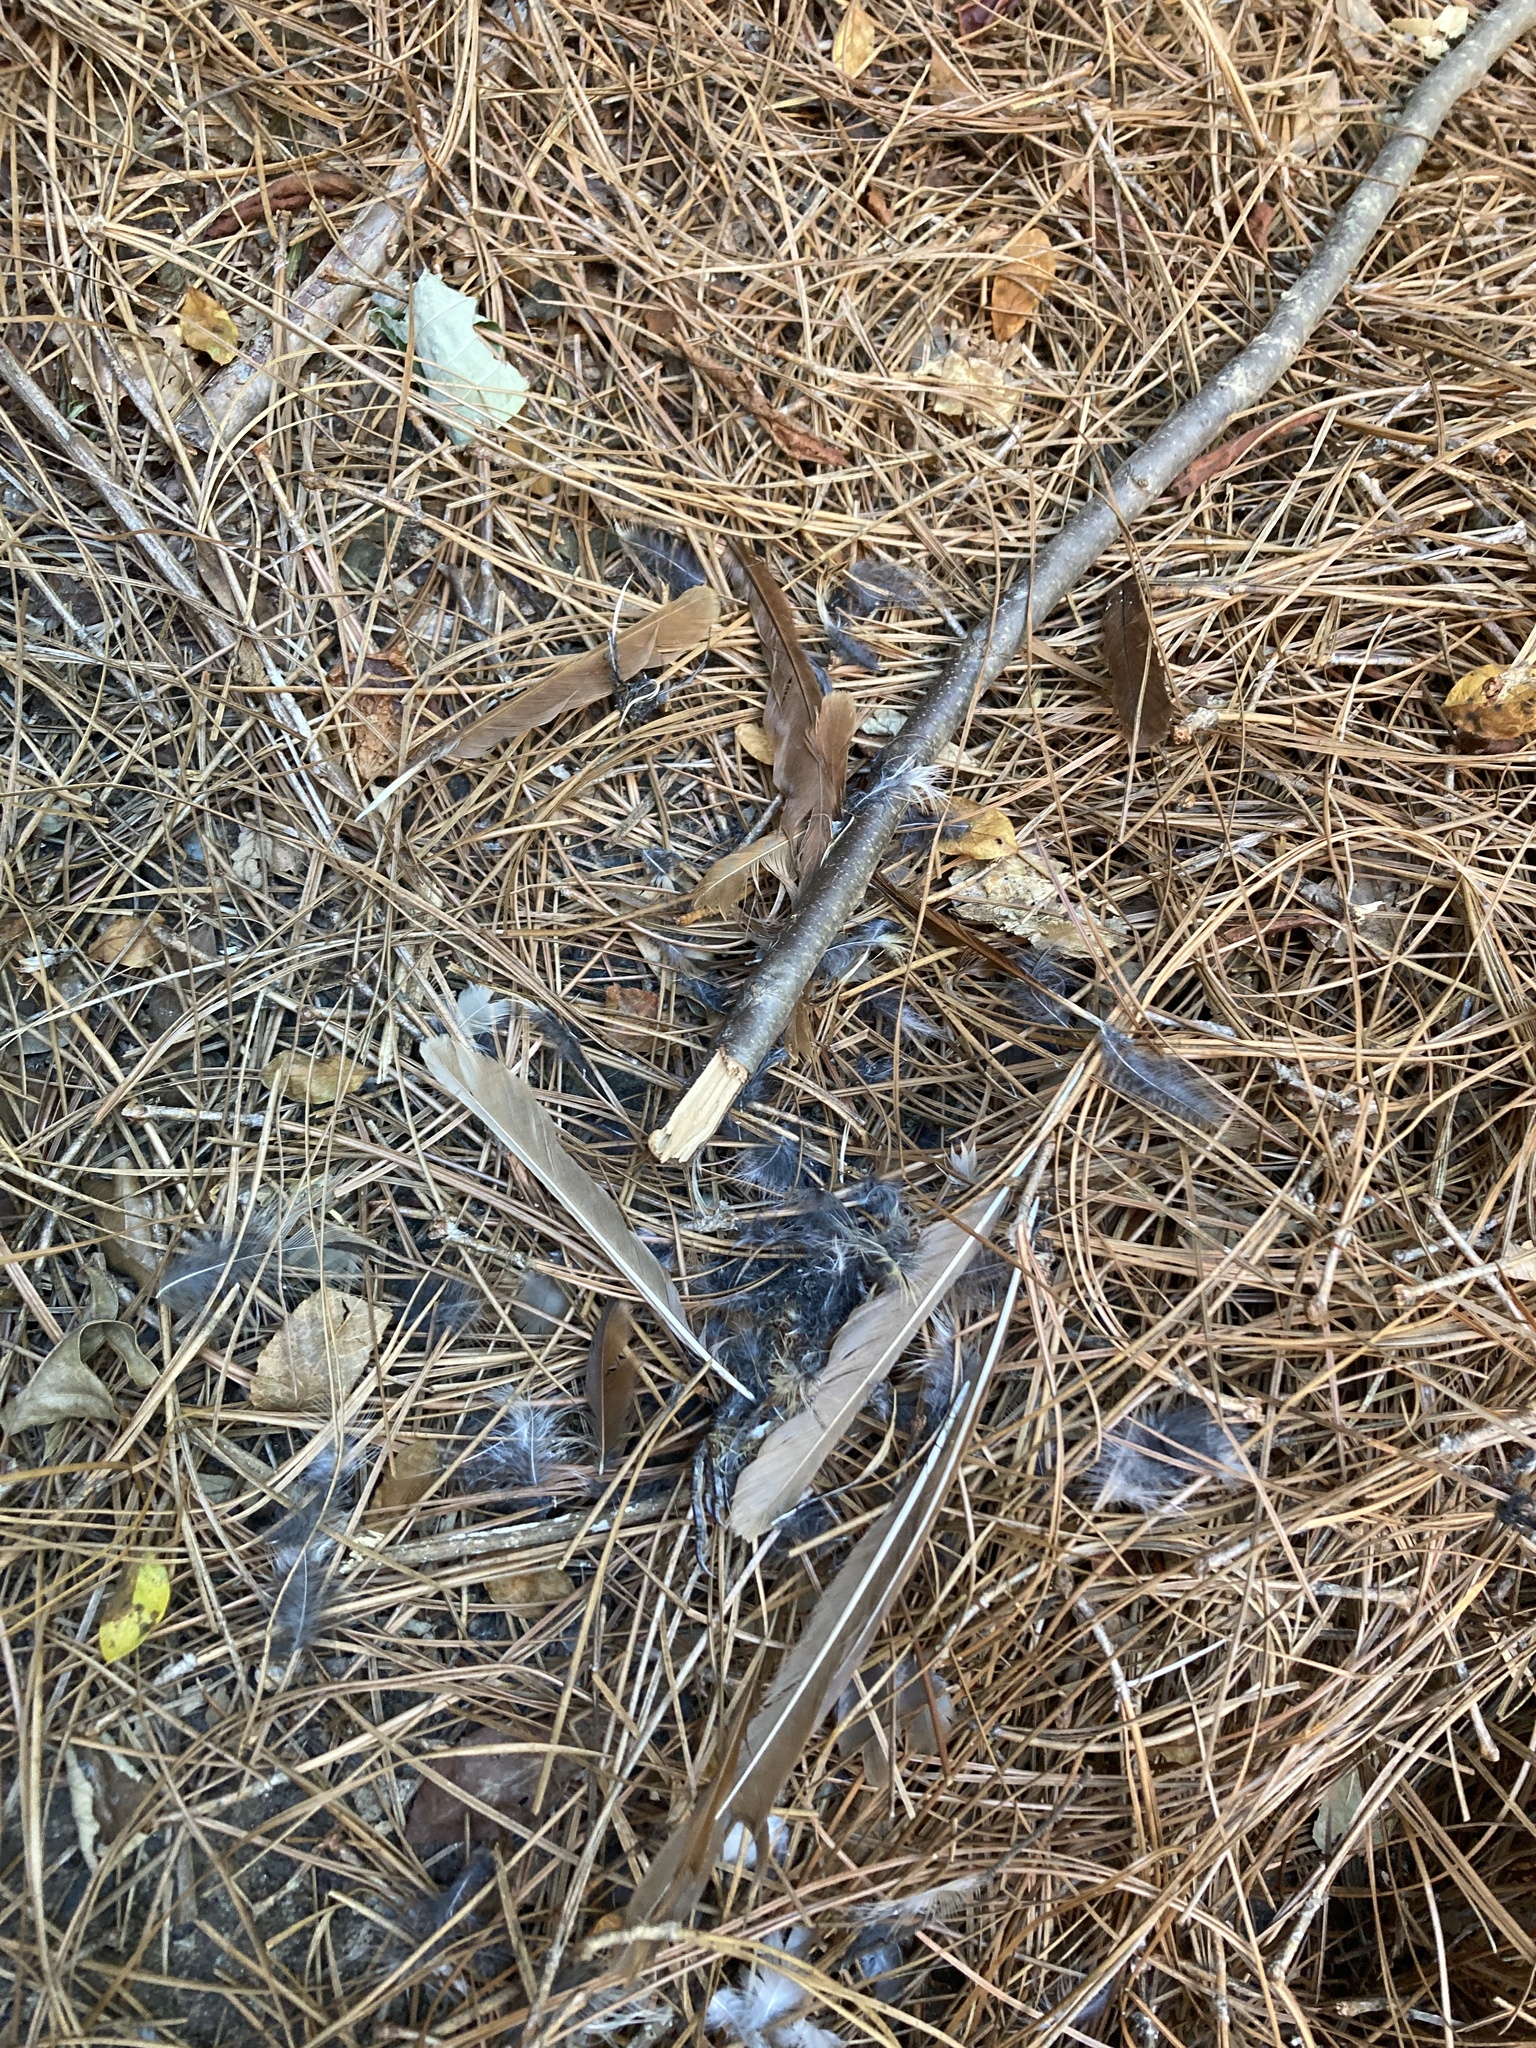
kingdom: Animalia
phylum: Chordata
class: Aves
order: Passeriformes
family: Mimidae
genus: Toxostoma
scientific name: Toxostoma rufum
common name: Brown thrasher
